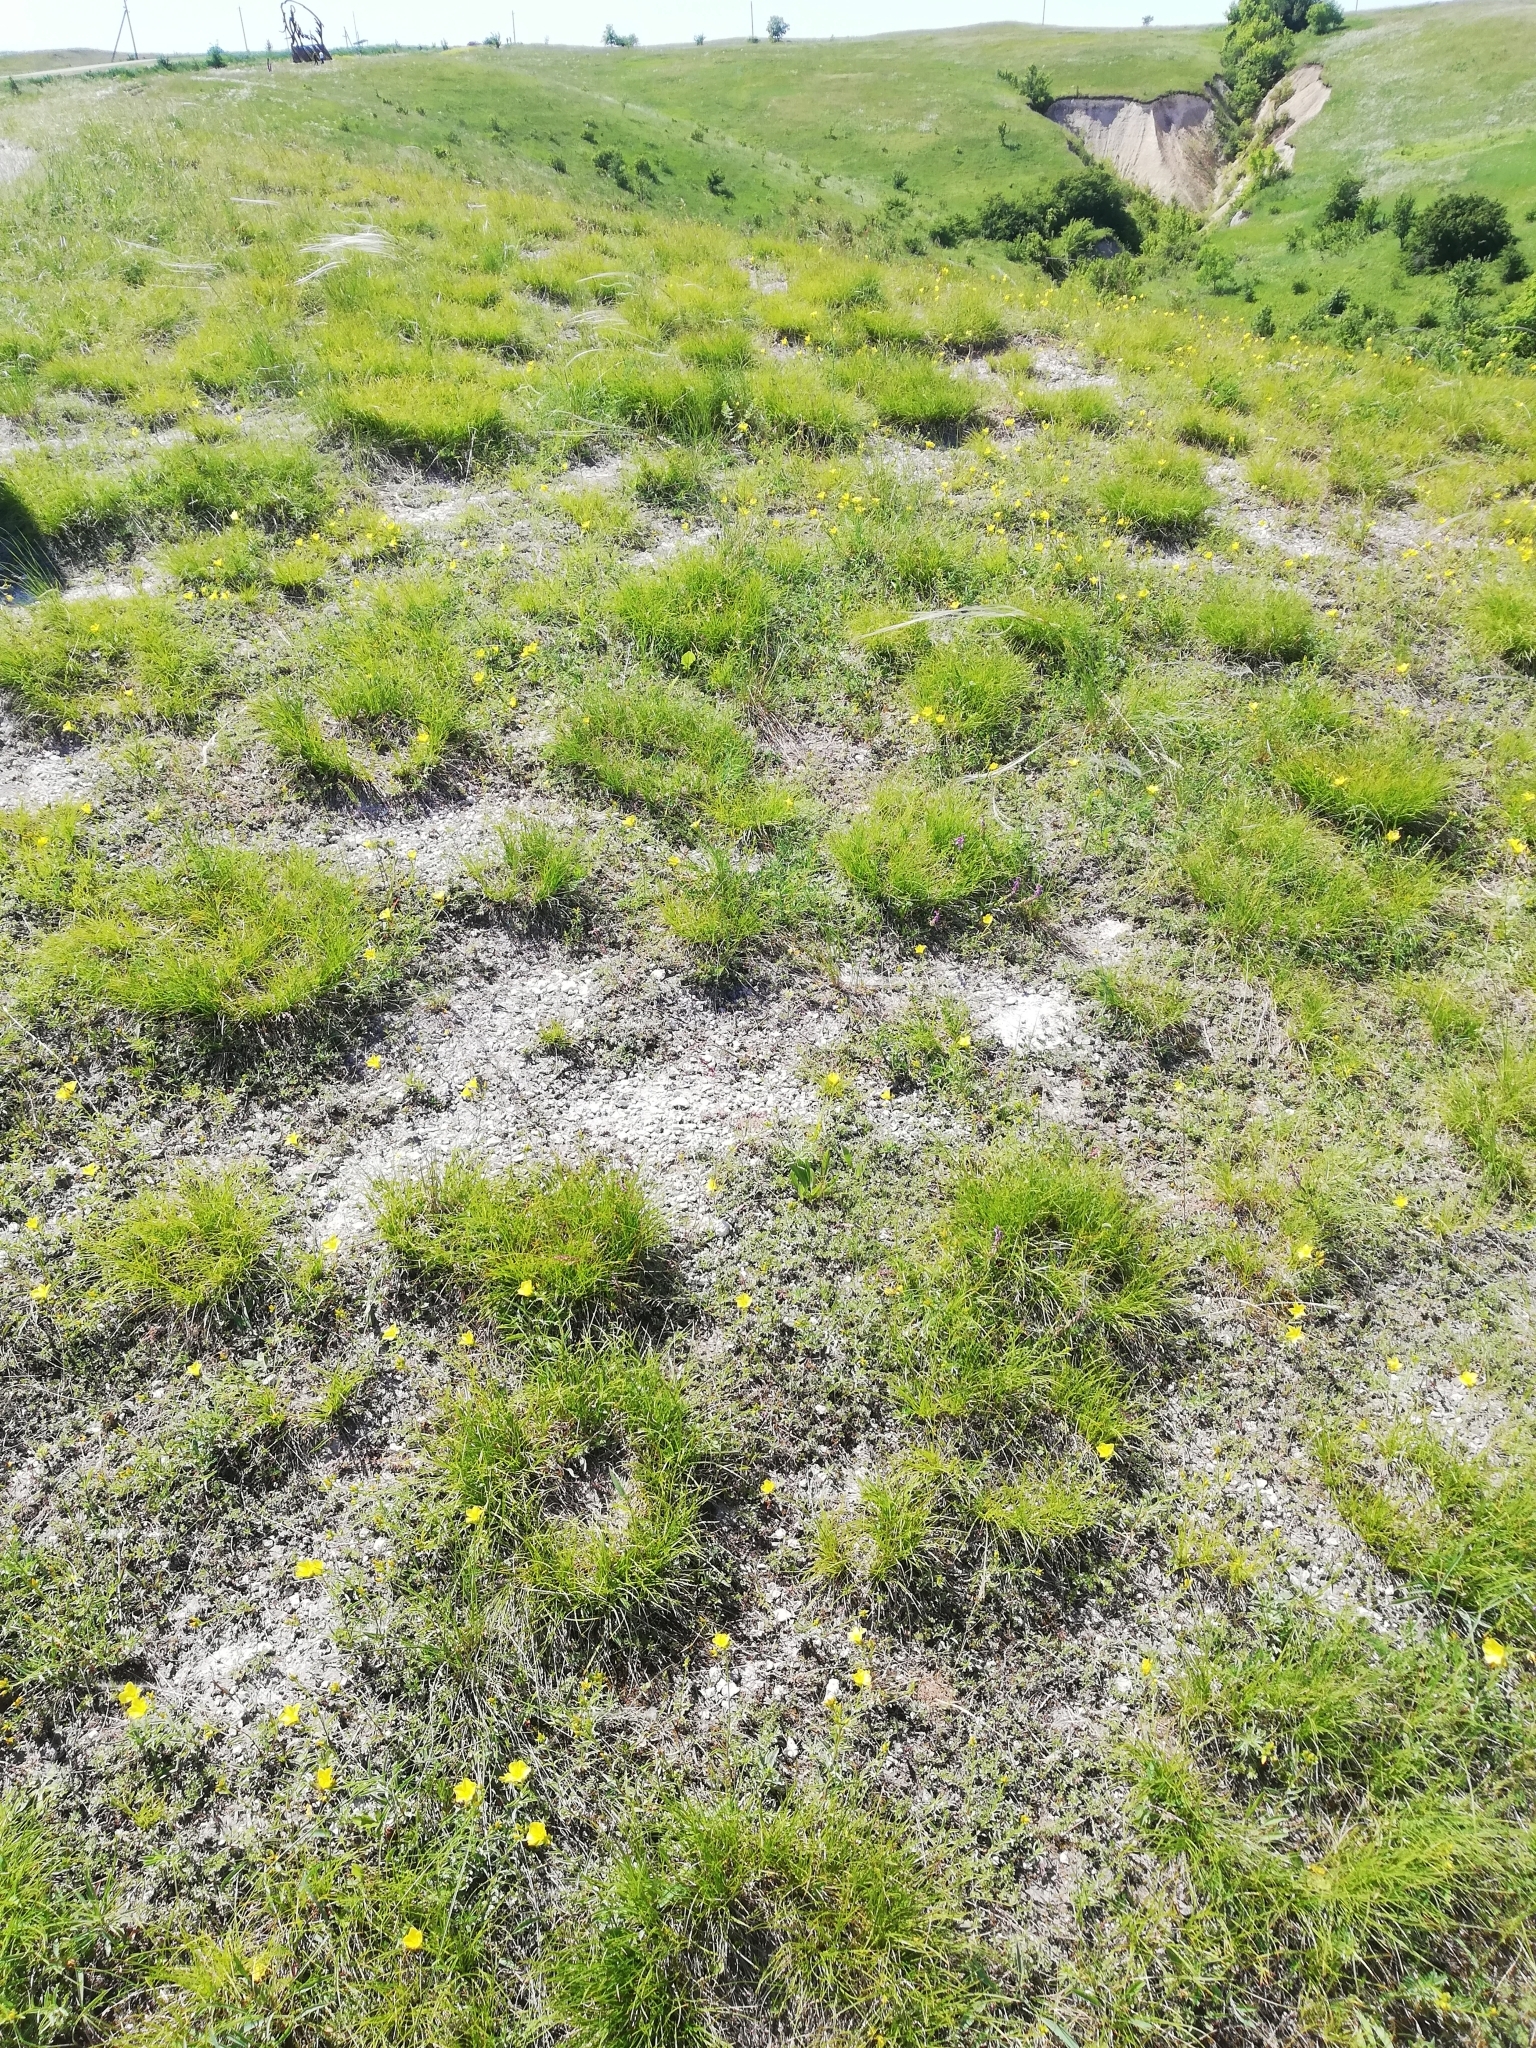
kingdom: Plantae
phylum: Tracheophyta
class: Liliopsida
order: Poales
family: Cyperaceae
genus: Carex
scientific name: Carex humilis
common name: Dwarf sedge
